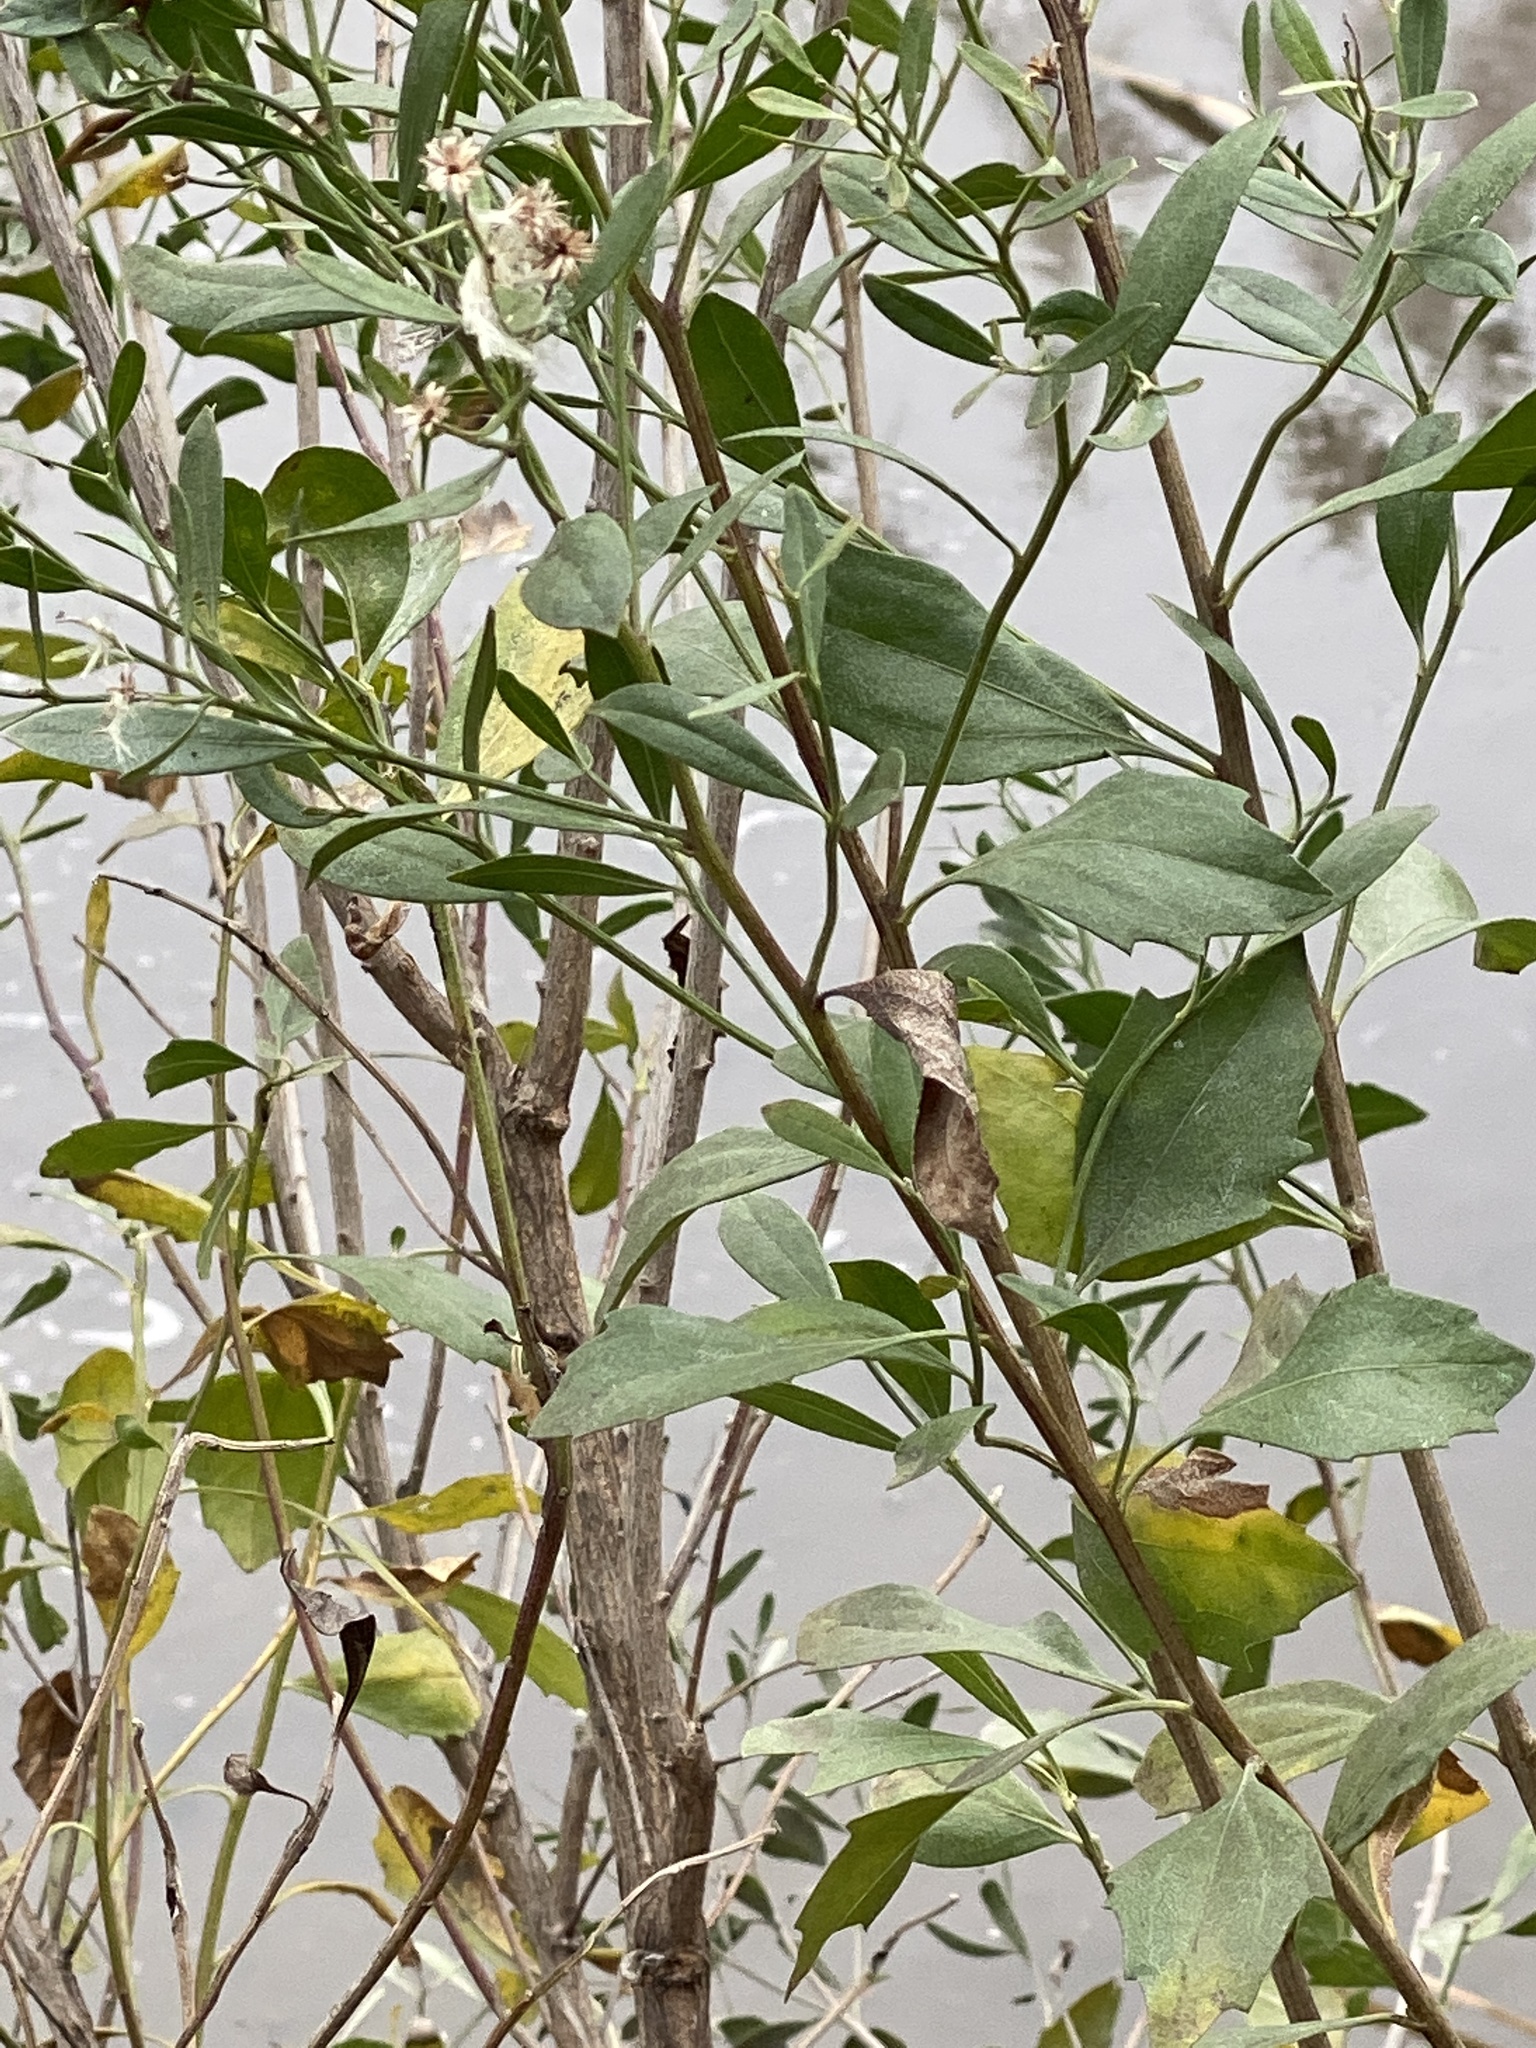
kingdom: Plantae
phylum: Tracheophyta
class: Magnoliopsida
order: Asterales
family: Asteraceae
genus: Baccharis
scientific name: Baccharis halimifolia
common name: Eastern baccharis
